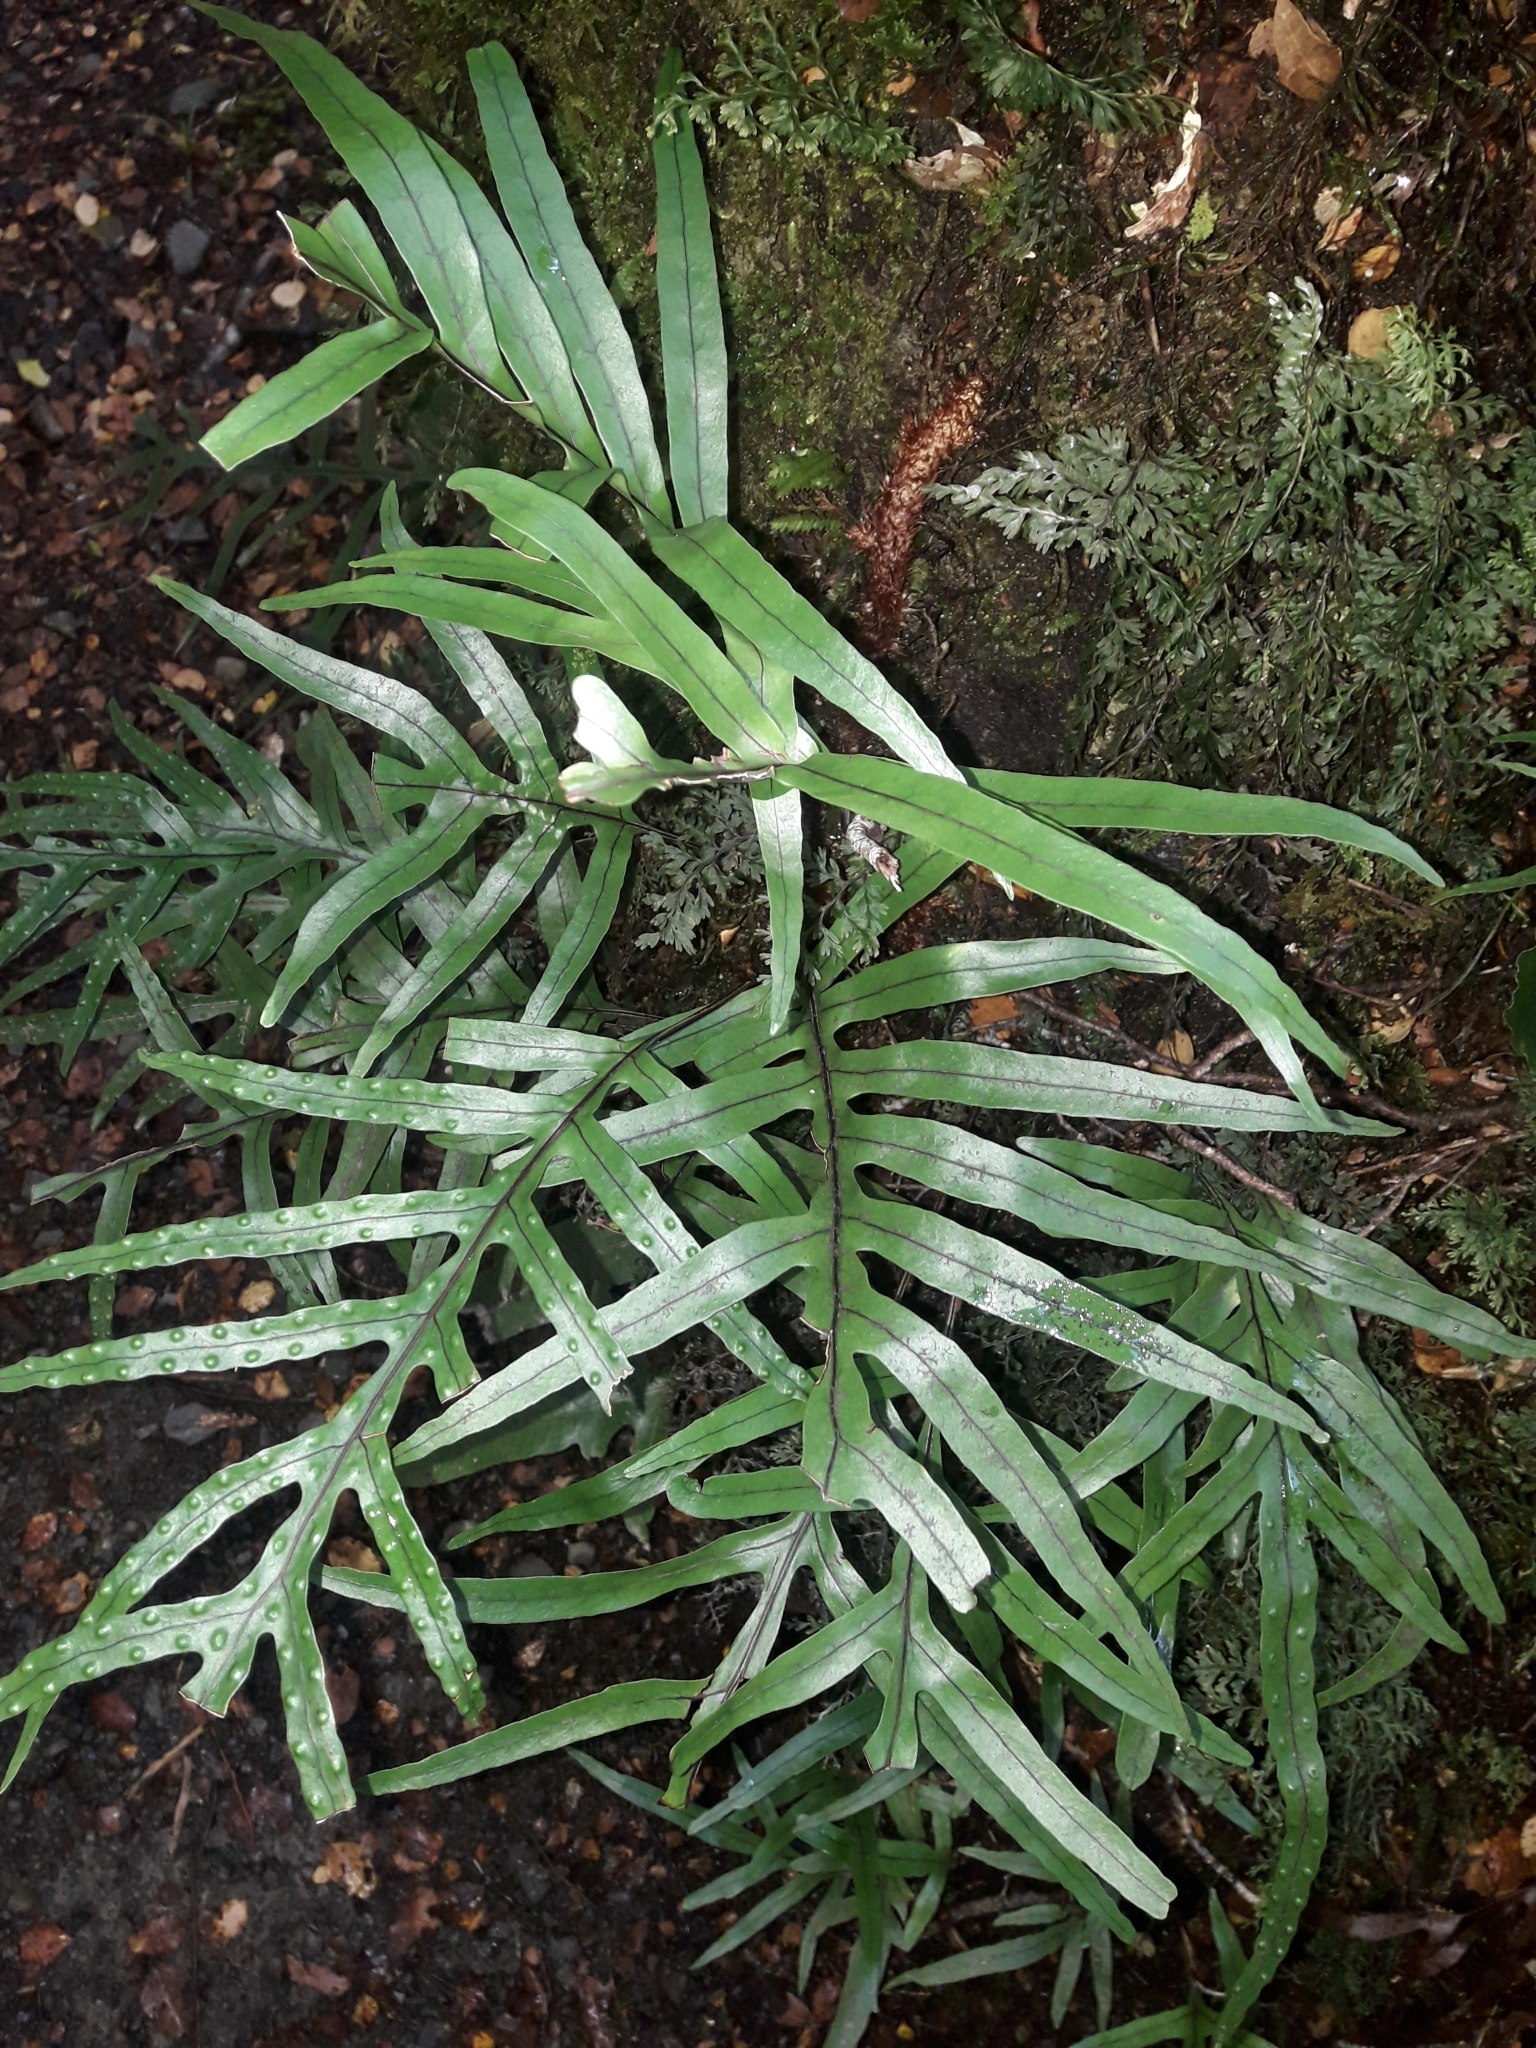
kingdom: Plantae
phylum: Tracheophyta
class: Polypodiopsida
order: Polypodiales
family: Polypodiaceae
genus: Lecanopteris
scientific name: Lecanopteris novae-zealandiae
